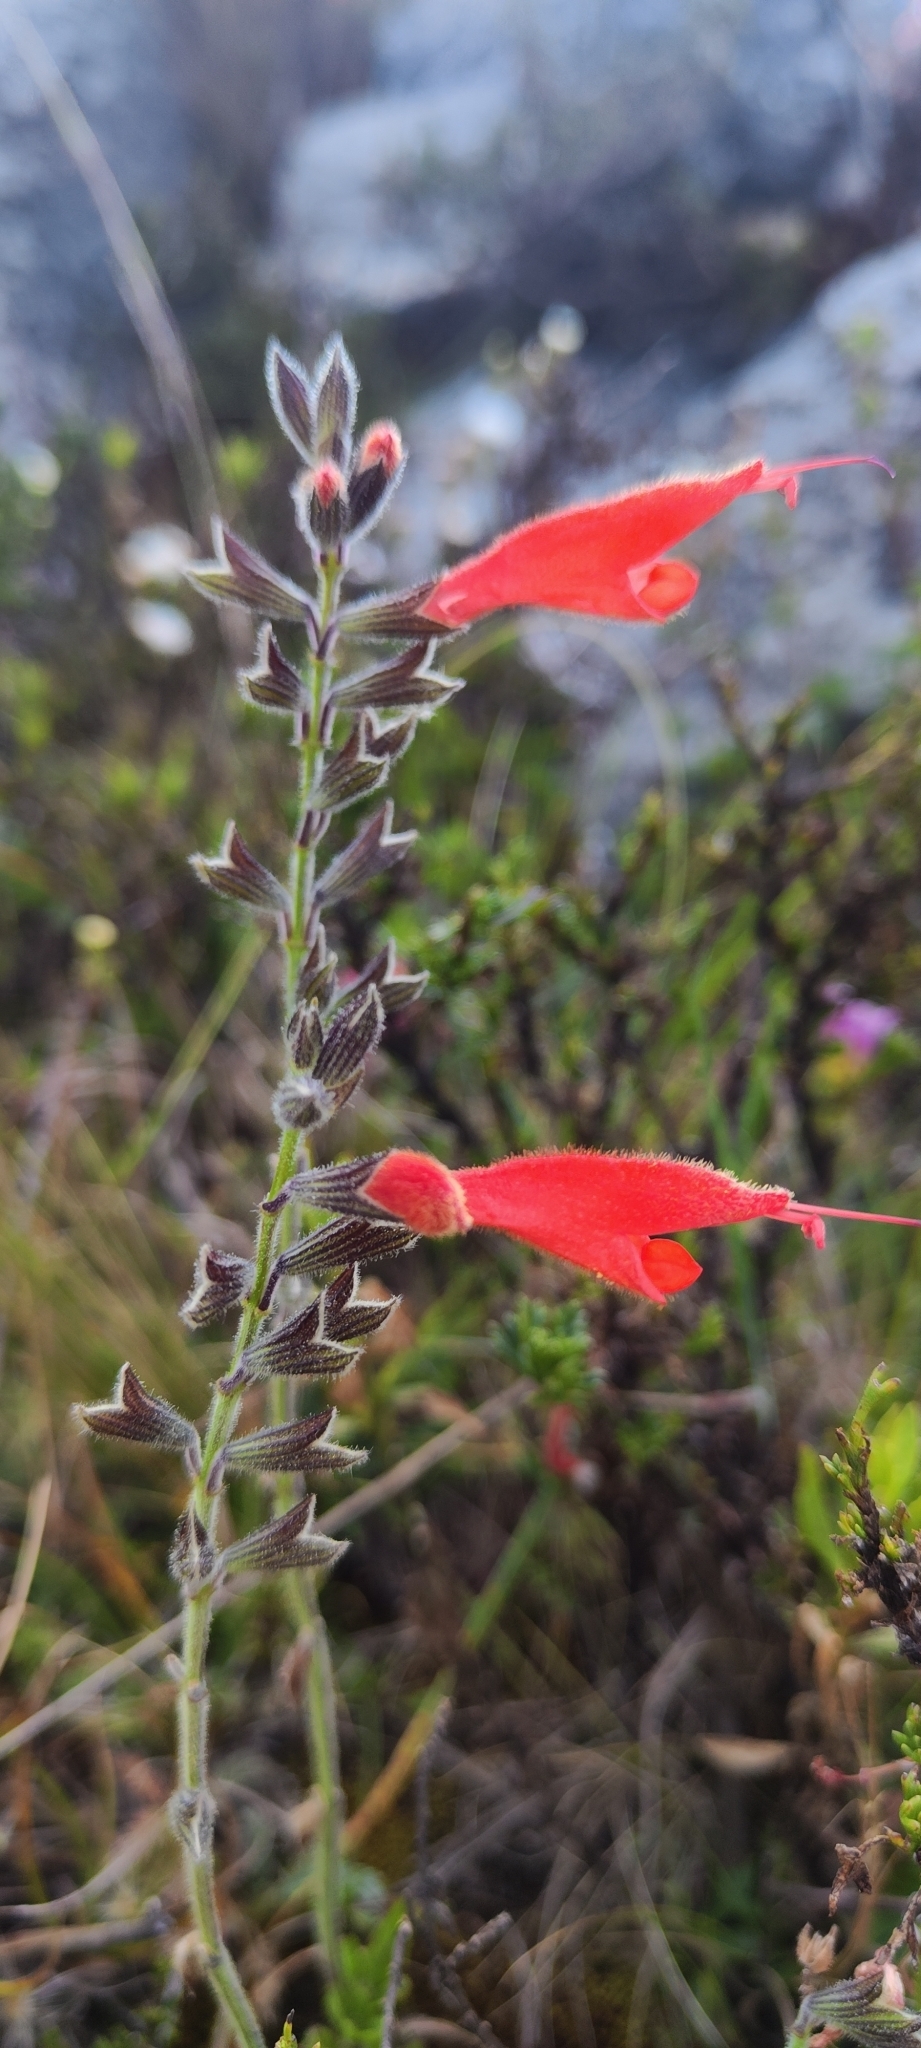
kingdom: Plantae
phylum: Tracheophyta
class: Magnoliopsida
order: Lamiales
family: Lamiaceae
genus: Salvia
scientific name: Salvia oppositiflora
